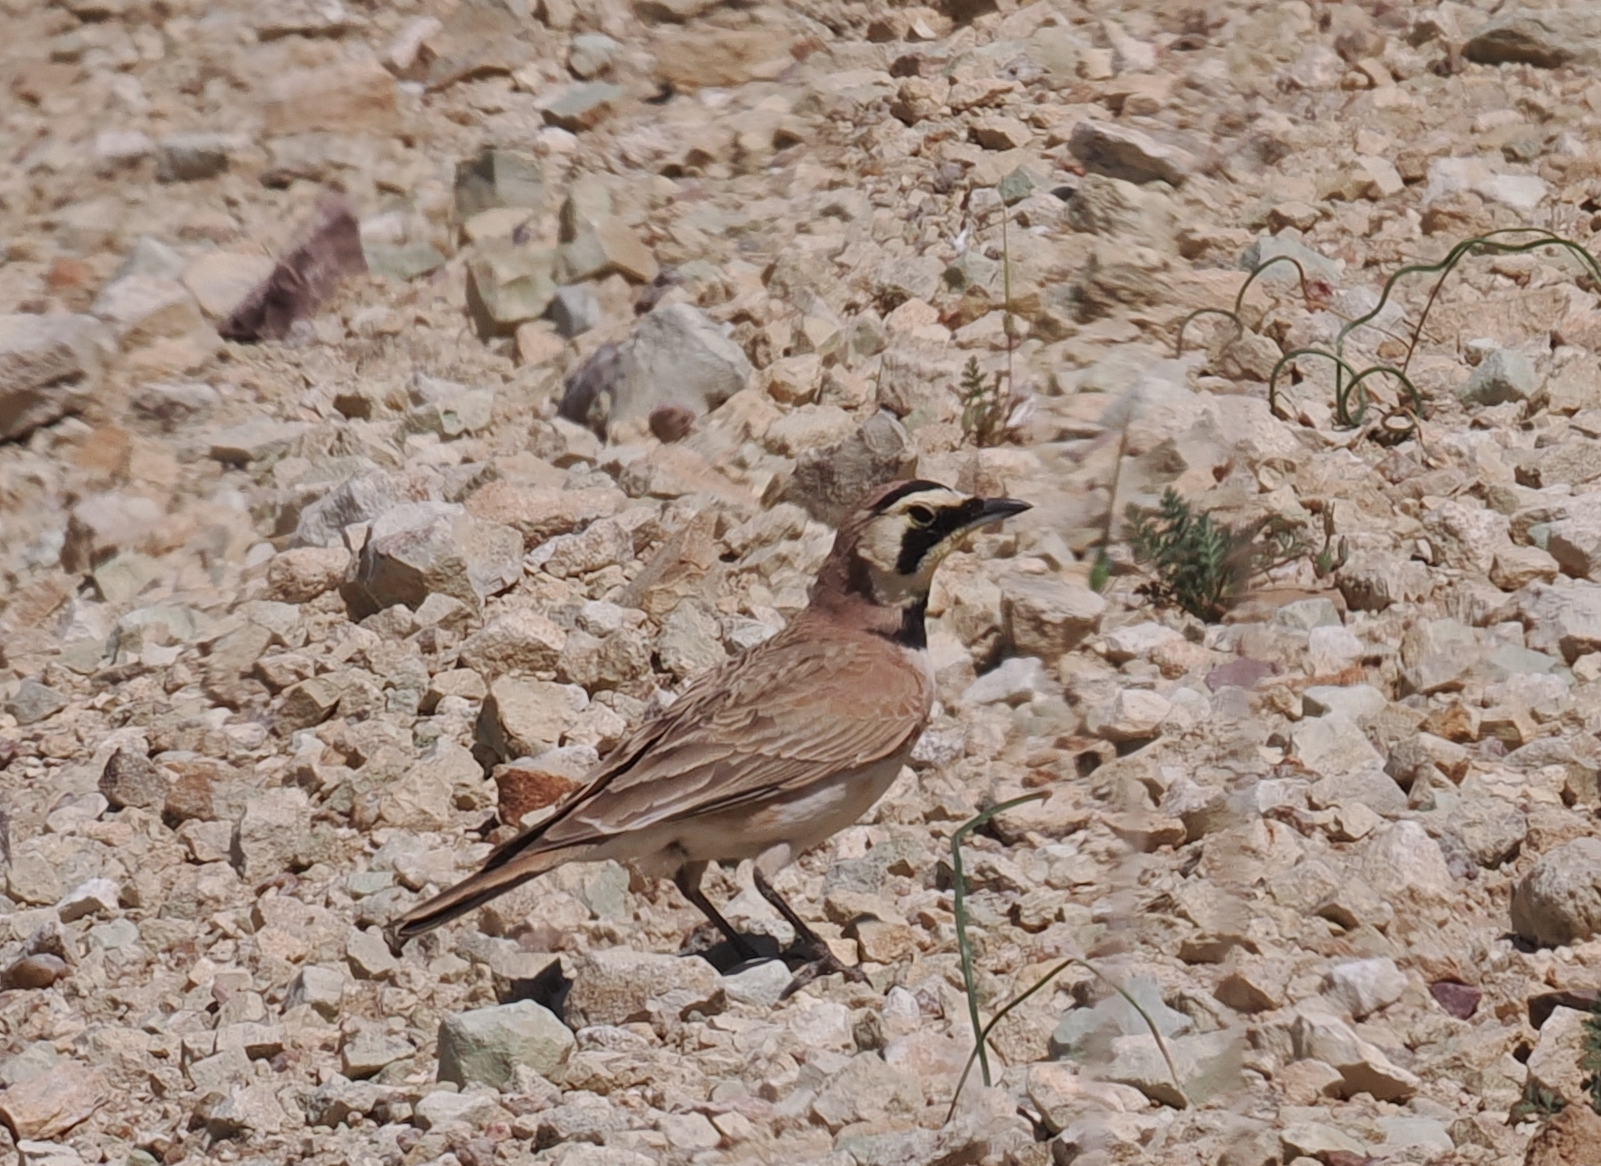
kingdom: Animalia
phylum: Chordata
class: Aves
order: Passeriformes
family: Alaudidae
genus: Eremophila
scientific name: Eremophila alpestris
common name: Horned lark
